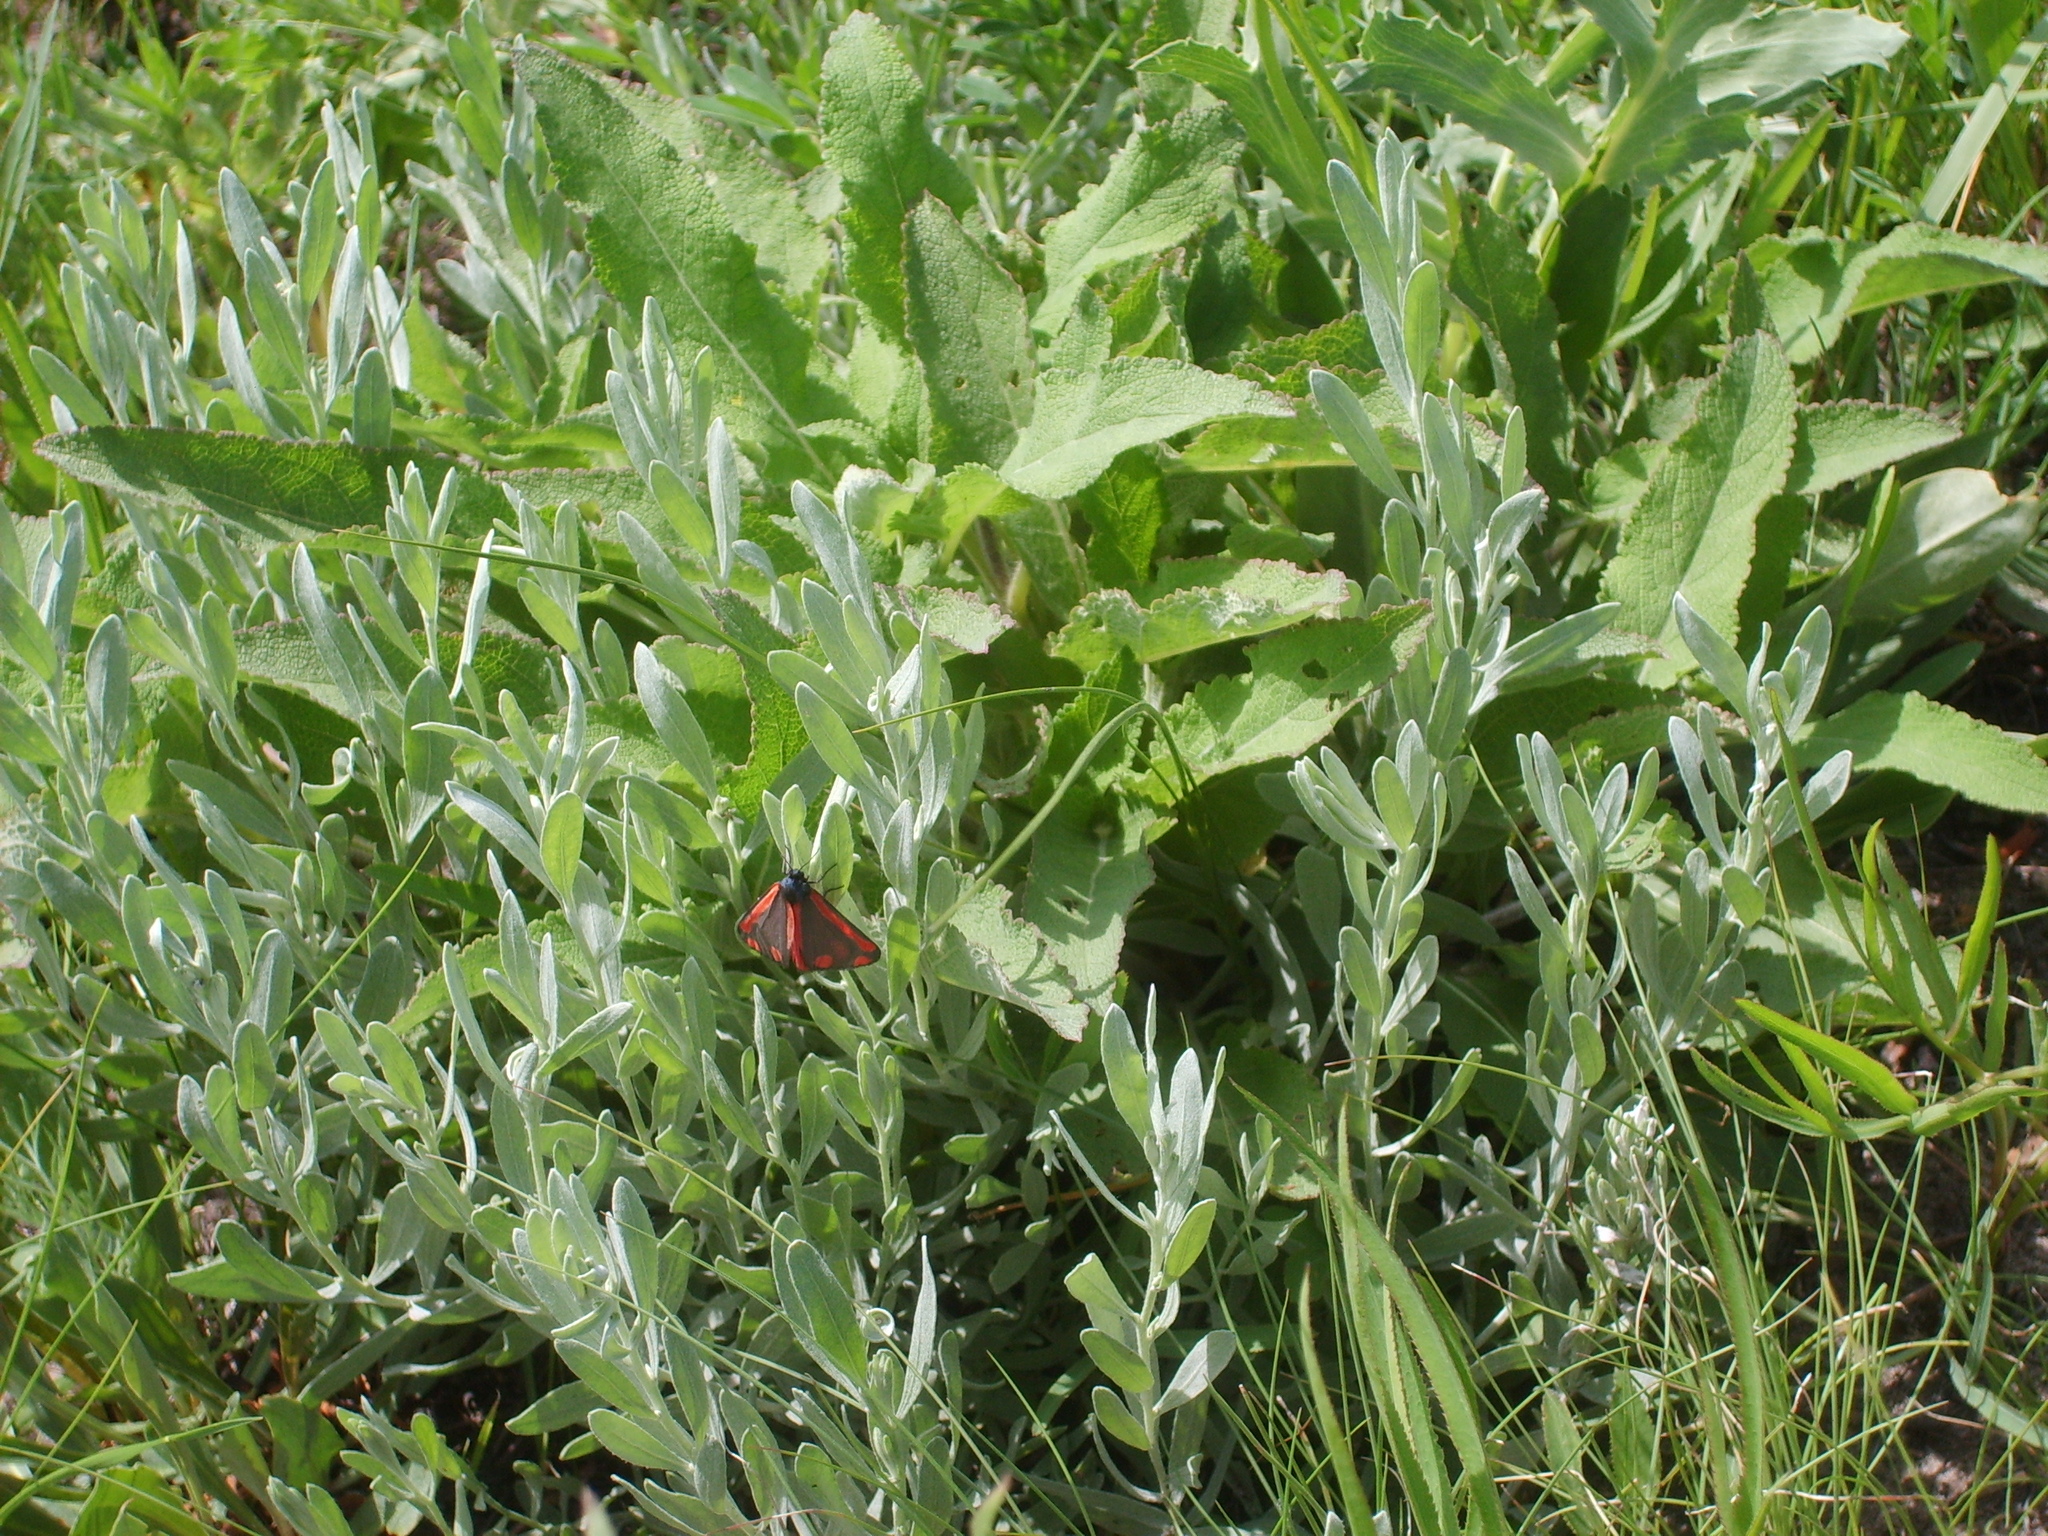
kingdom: Animalia
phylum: Arthropoda
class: Insecta
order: Lepidoptera
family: Erebidae
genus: Tyria
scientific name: Tyria jacobaeae
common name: Cinnabar
